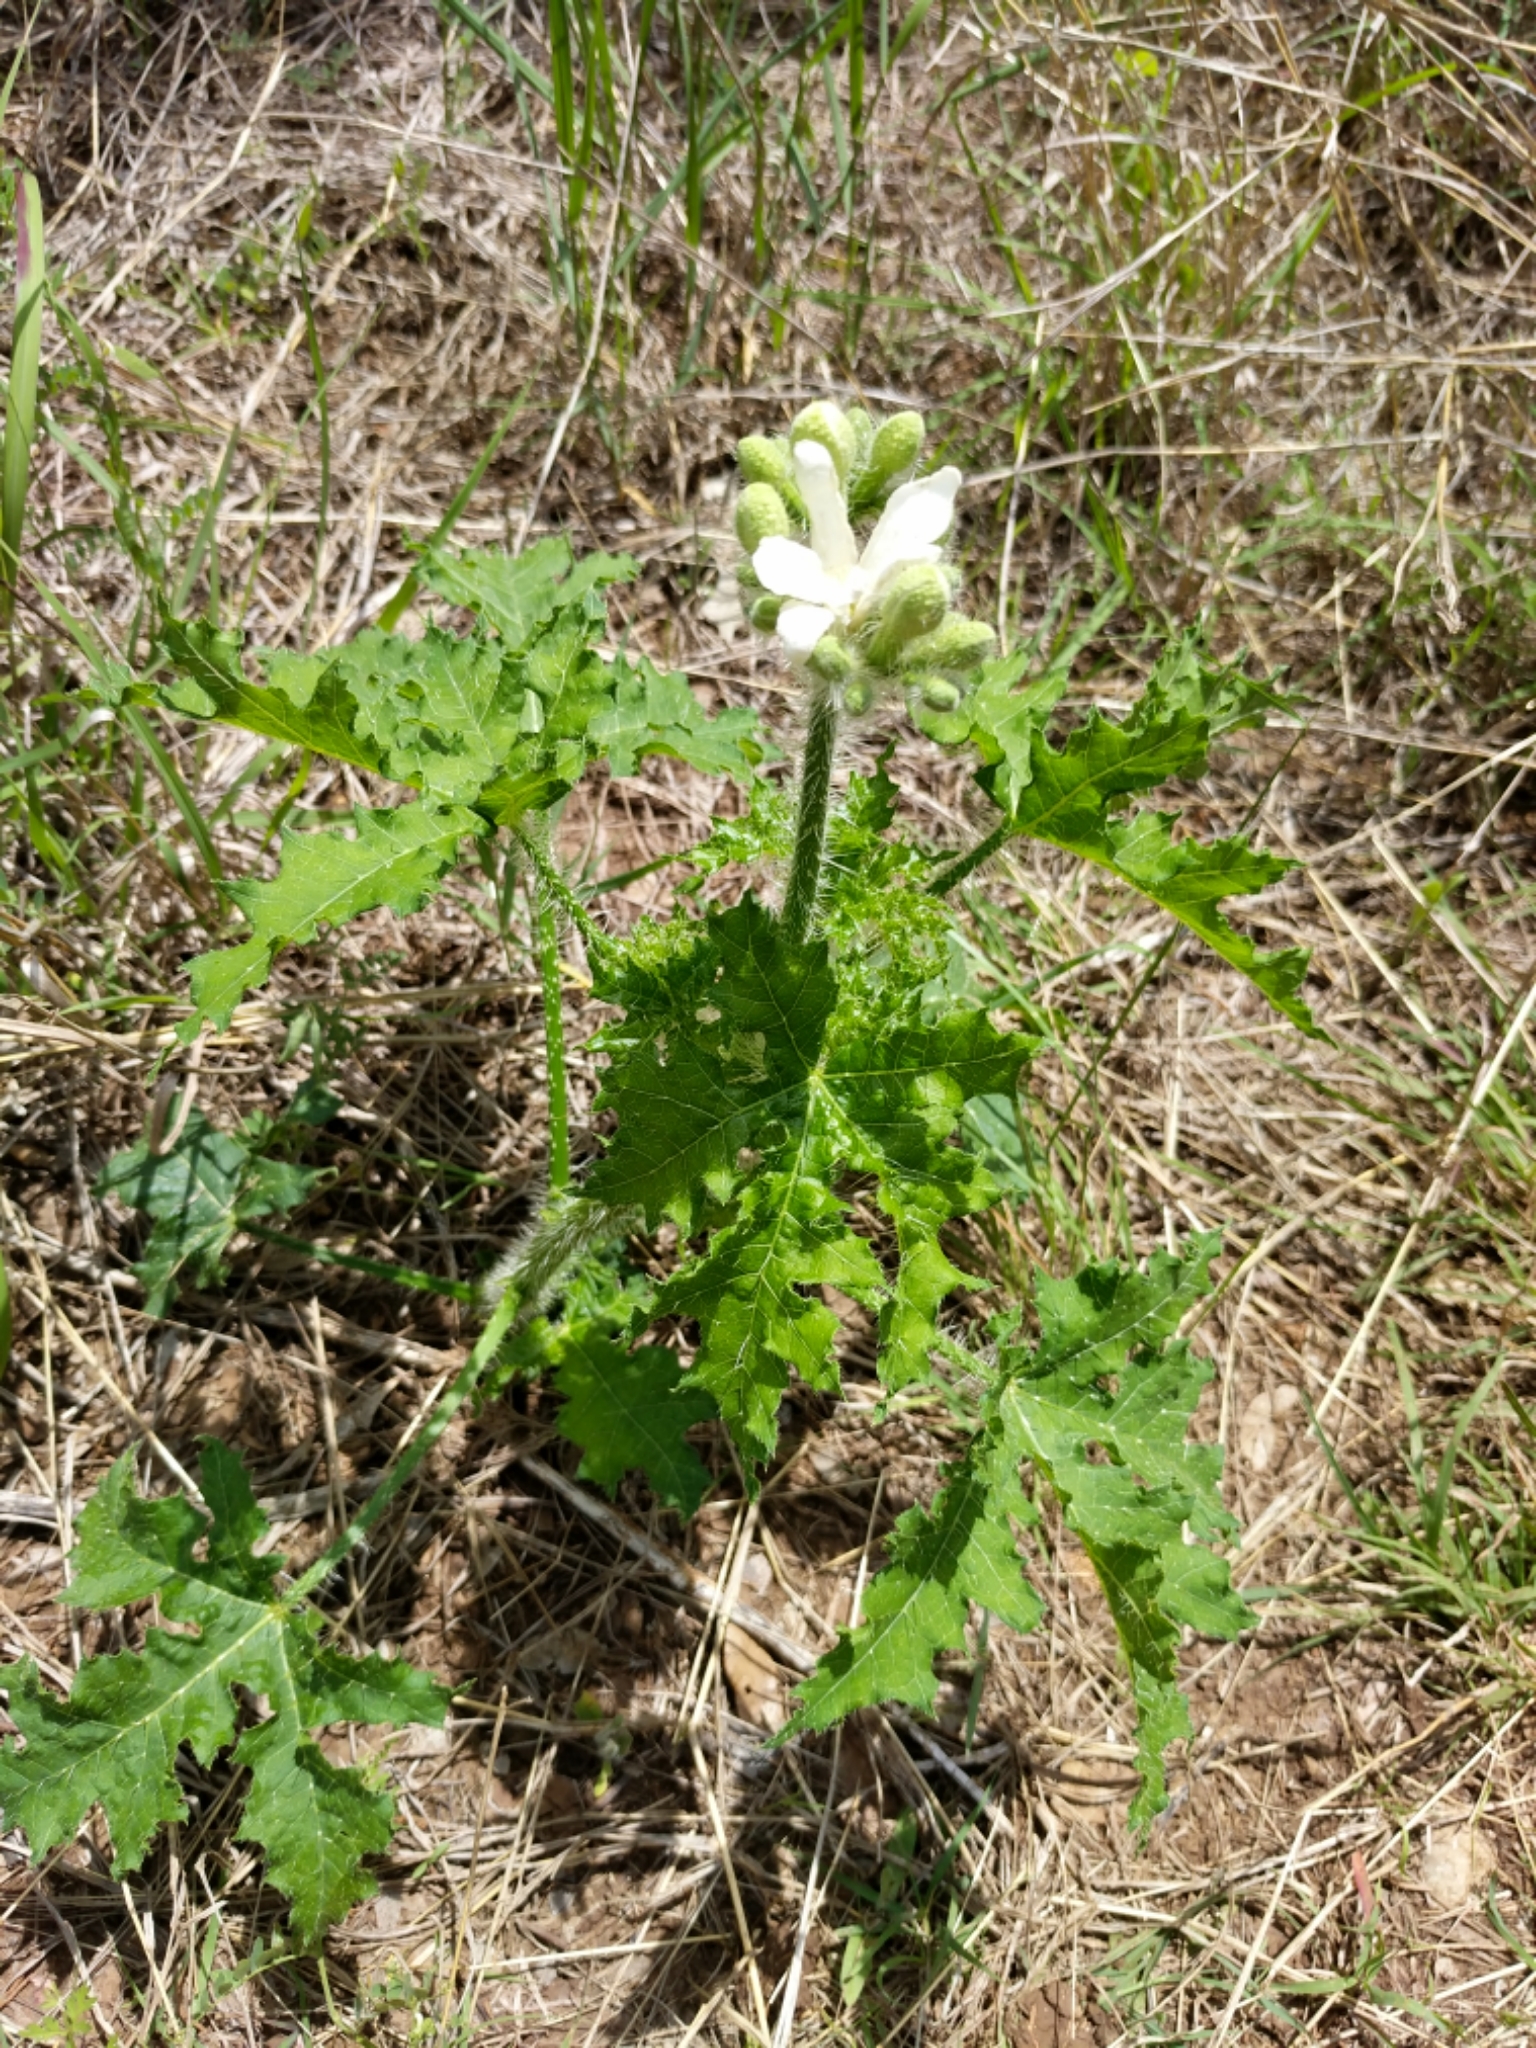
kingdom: Plantae
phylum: Tracheophyta
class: Magnoliopsida
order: Malpighiales
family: Euphorbiaceae
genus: Cnidoscolus
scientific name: Cnidoscolus texanus
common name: Texas bull-nettle
